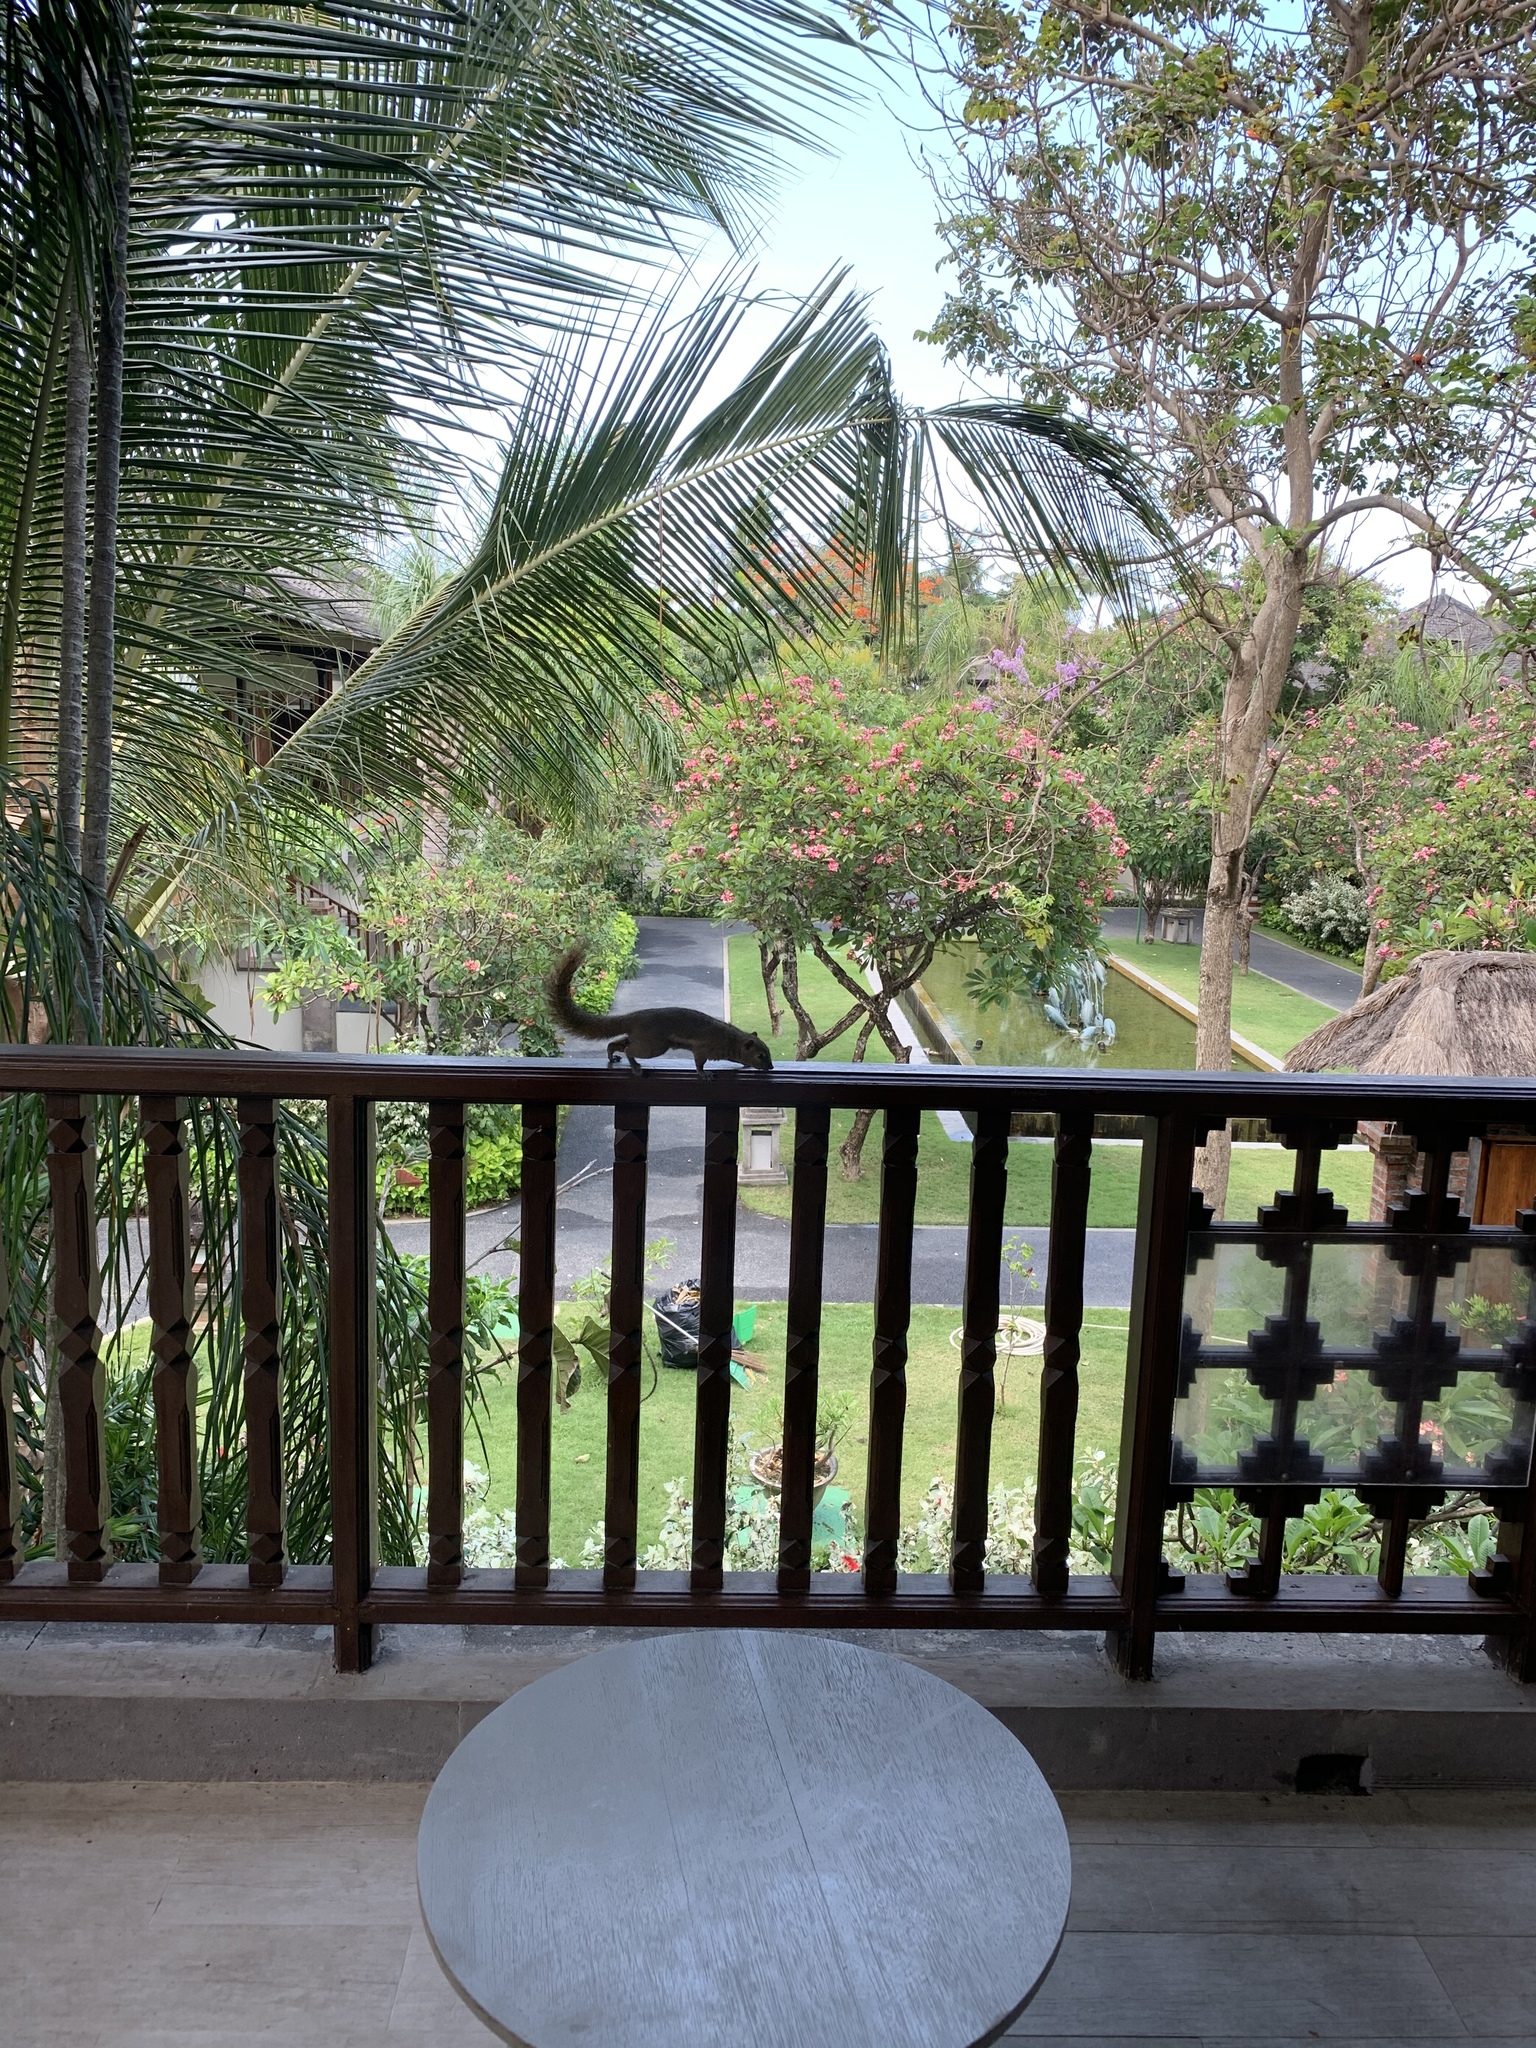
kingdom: Animalia
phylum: Chordata
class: Mammalia
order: Rodentia
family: Sciuridae
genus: Callosciurus
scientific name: Callosciurus notatus
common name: Plantain squirrel
